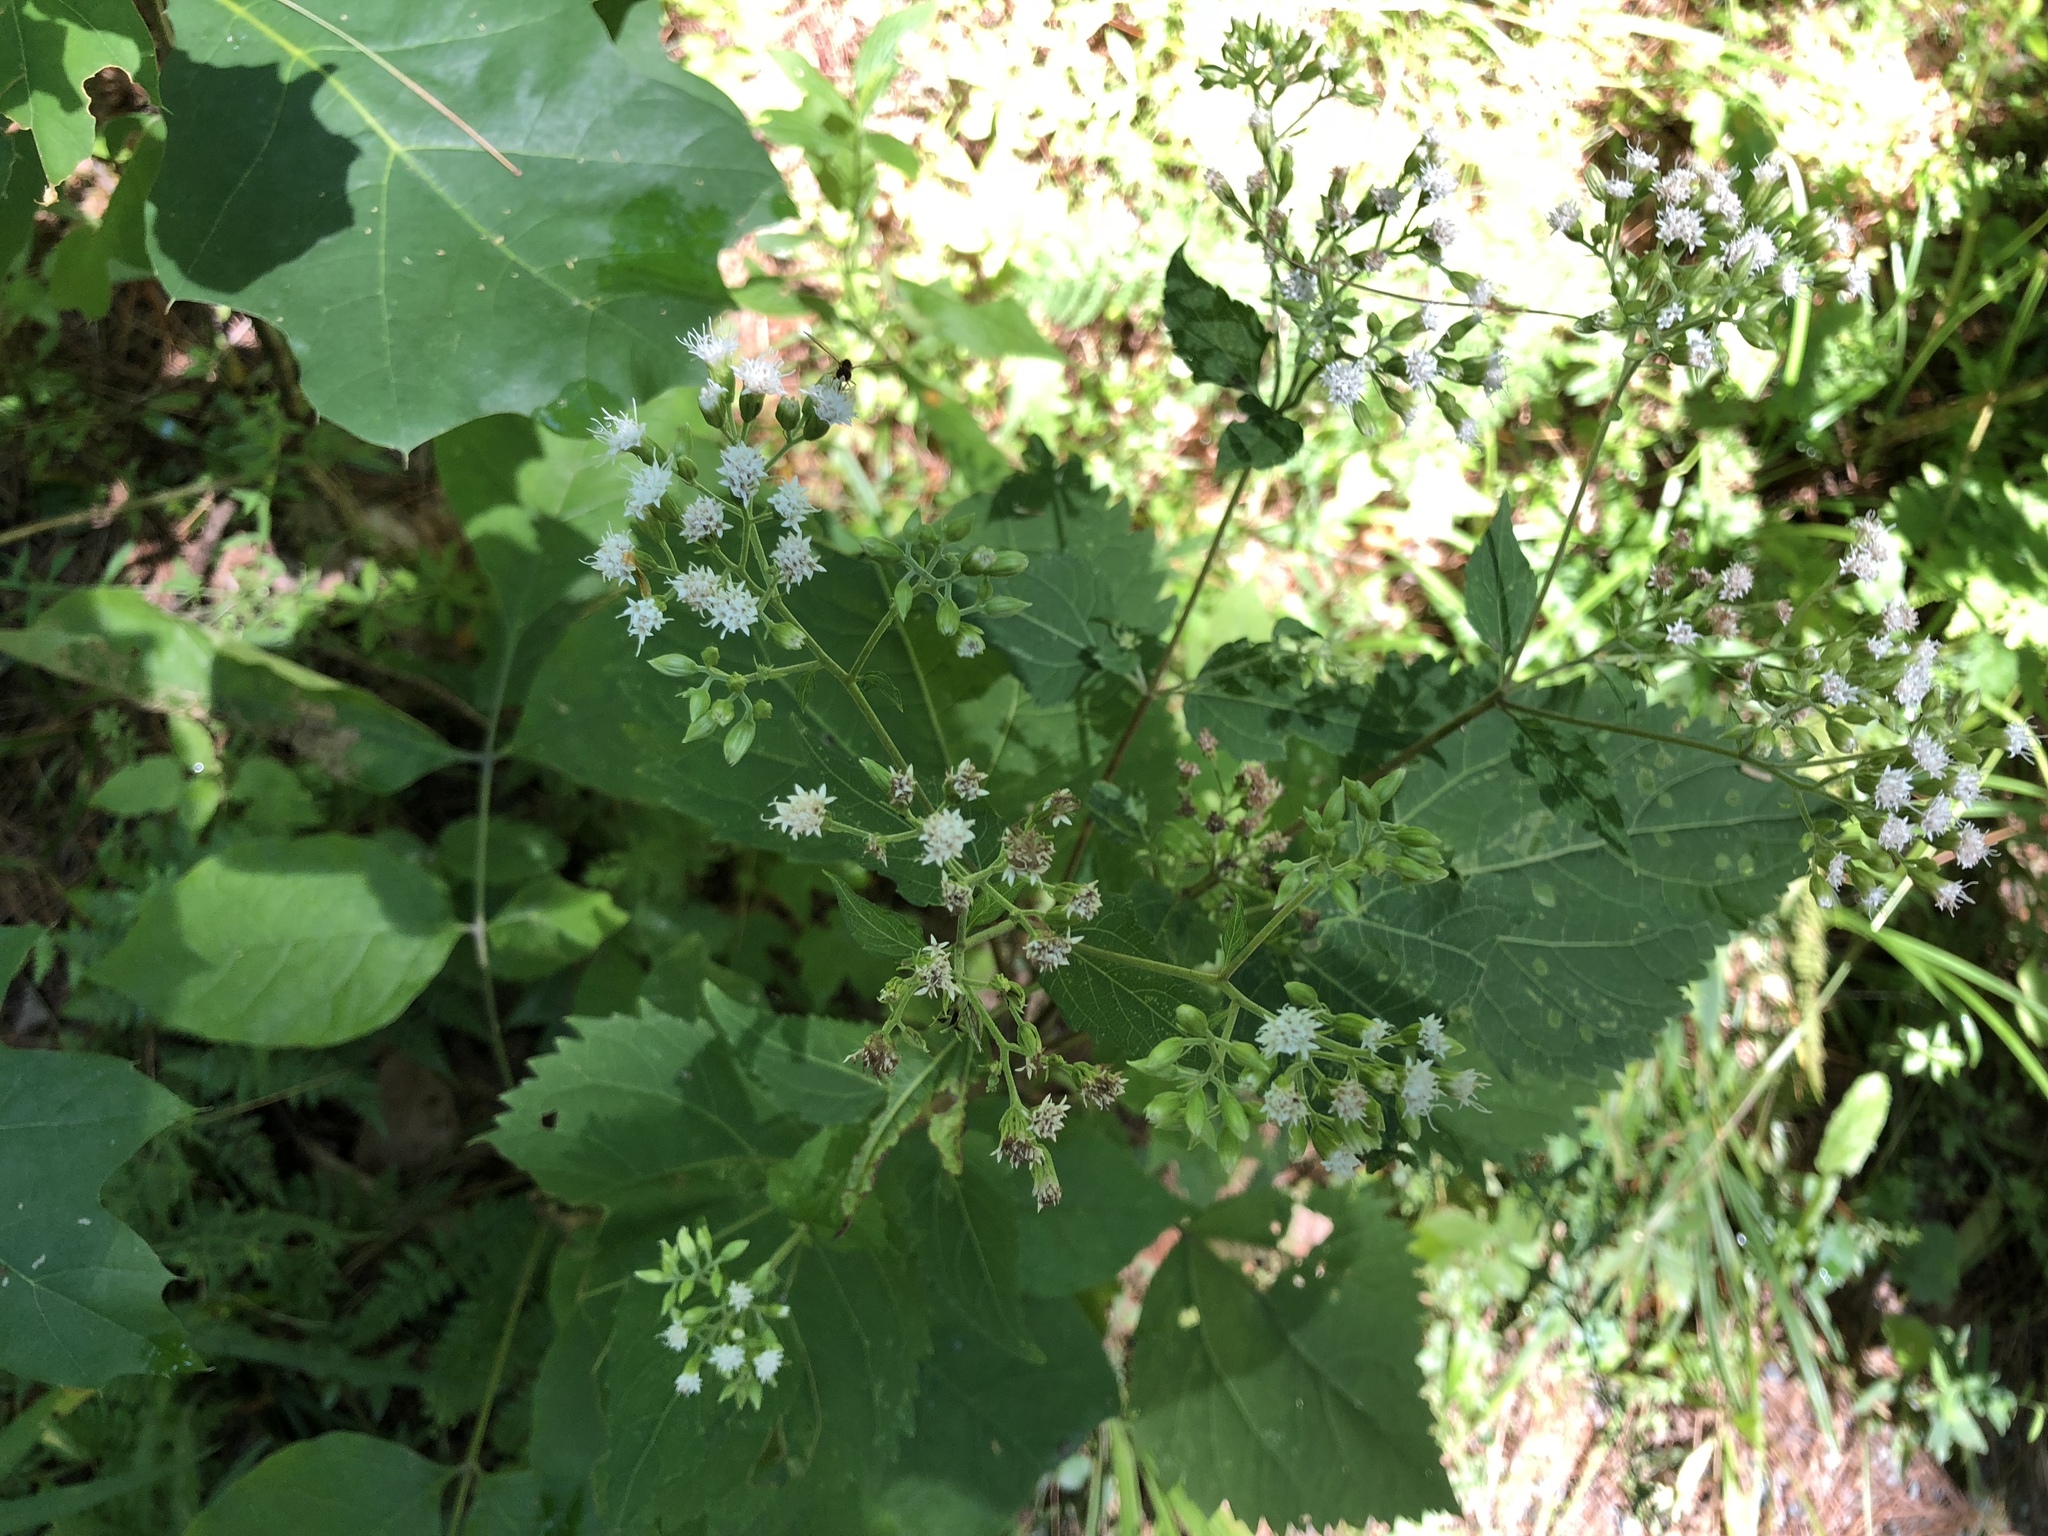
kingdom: Plantae
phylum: Tracheophyta
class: Magnoliopsida
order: Asterales
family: Asteraceae
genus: Ageratina
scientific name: Ageratina altissima
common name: White snakeroot
